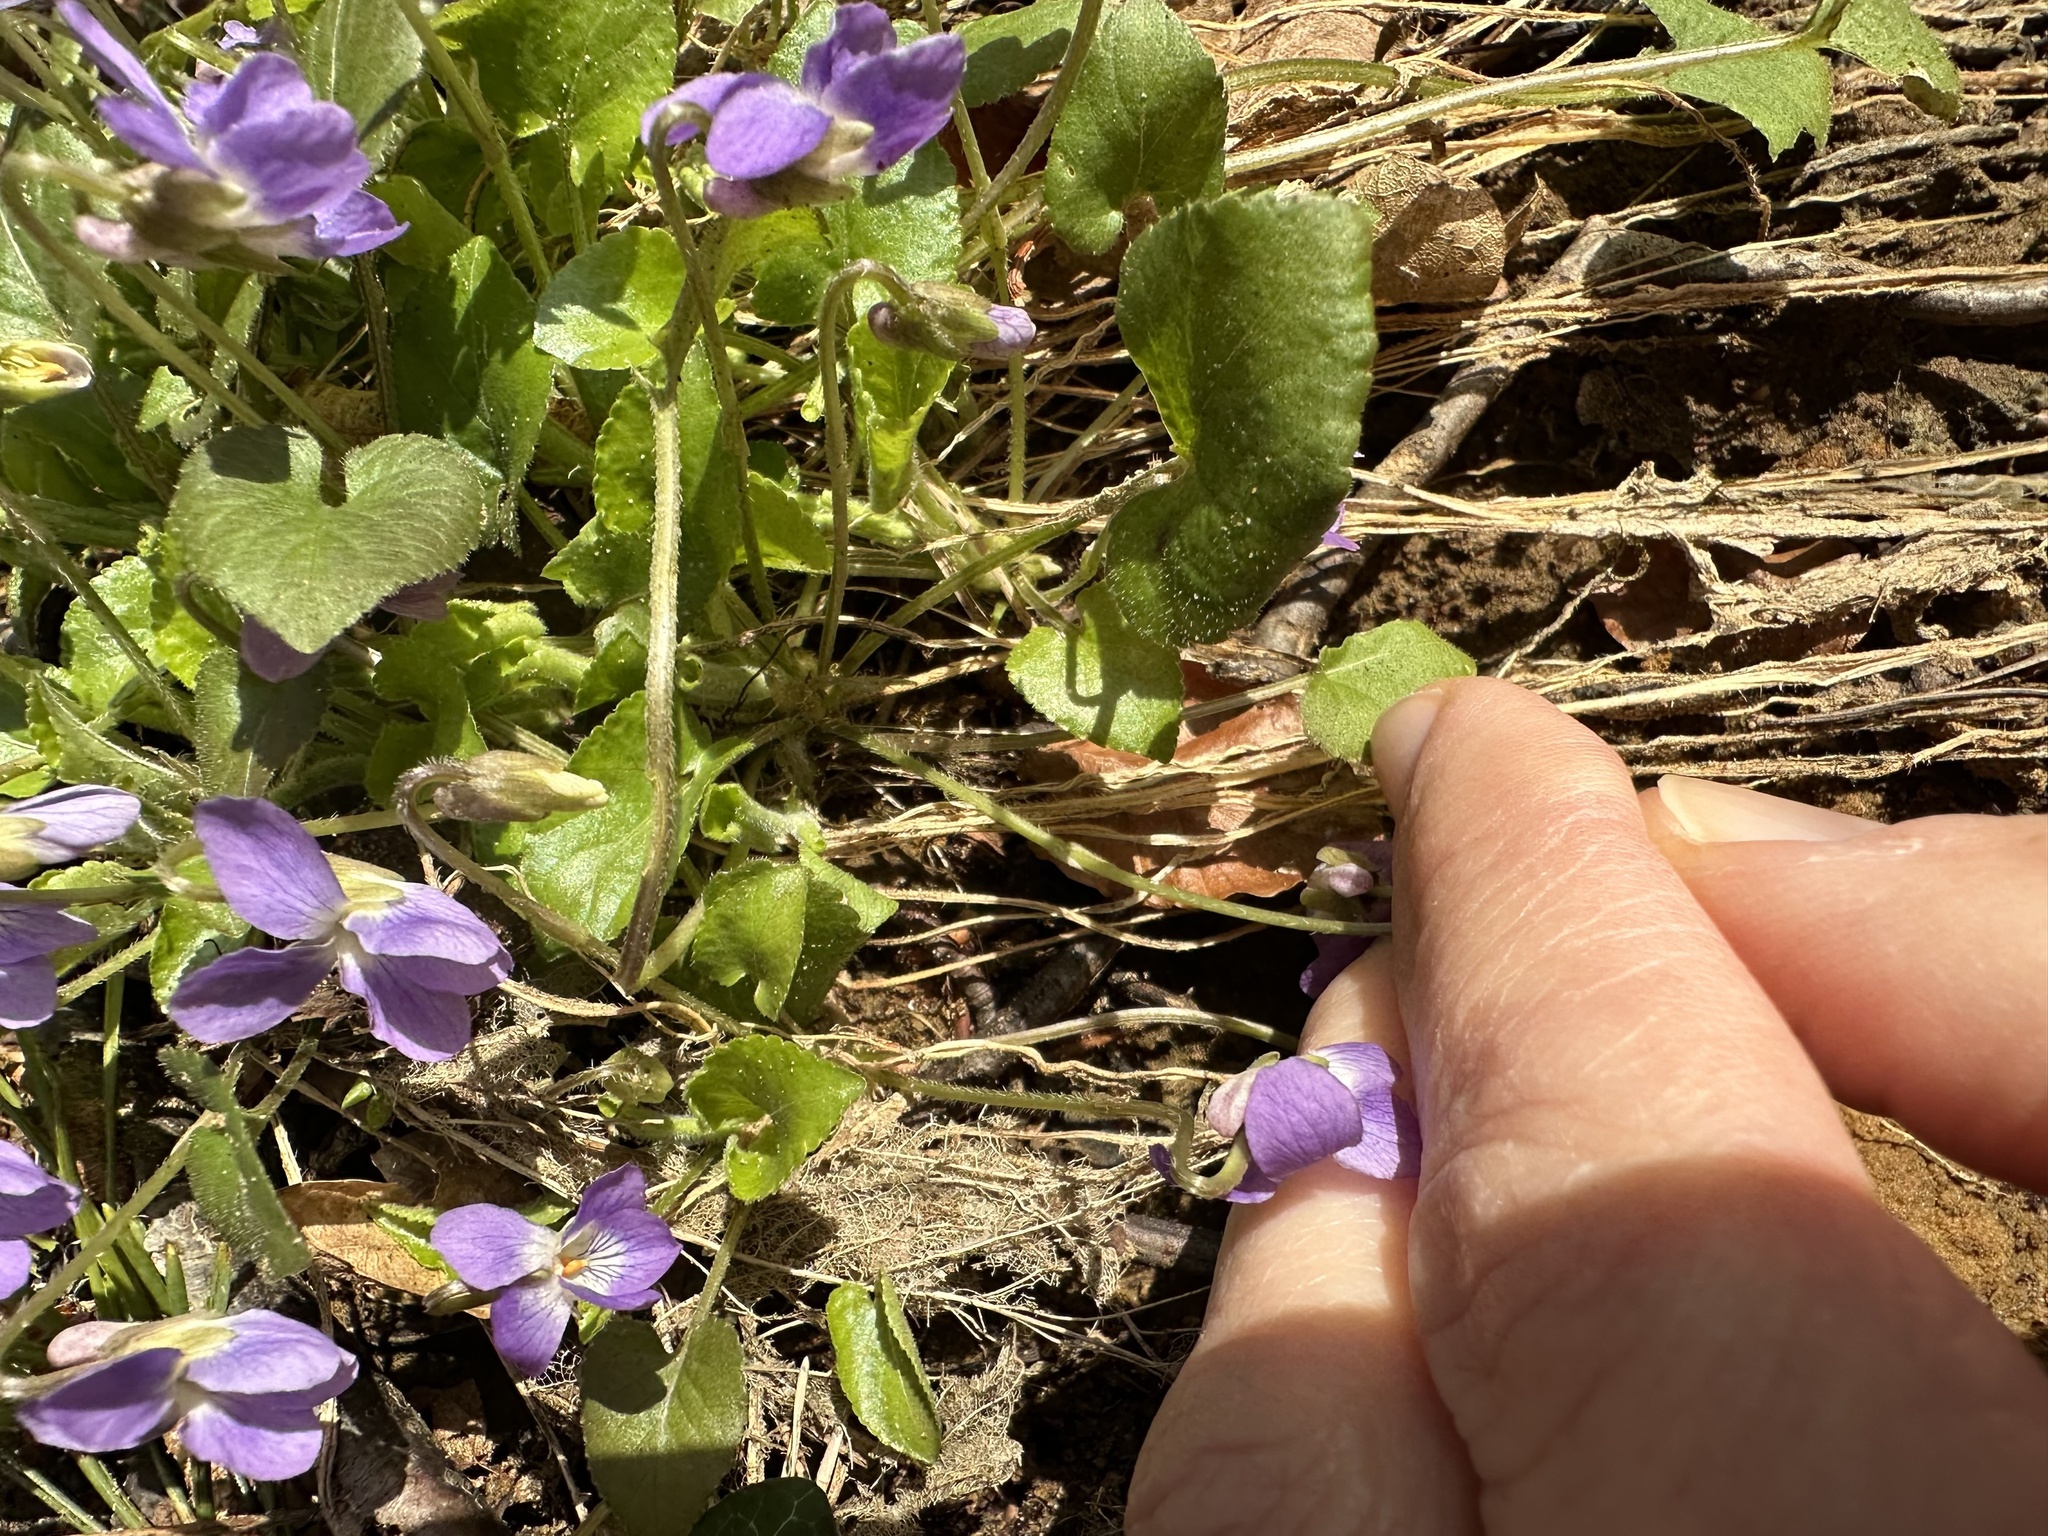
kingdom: Plantae
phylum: Tracheophyta
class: Magnoliopsida
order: Malpighiales
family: Violaceae
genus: Viola
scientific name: Viola odorata
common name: Sweet violet
